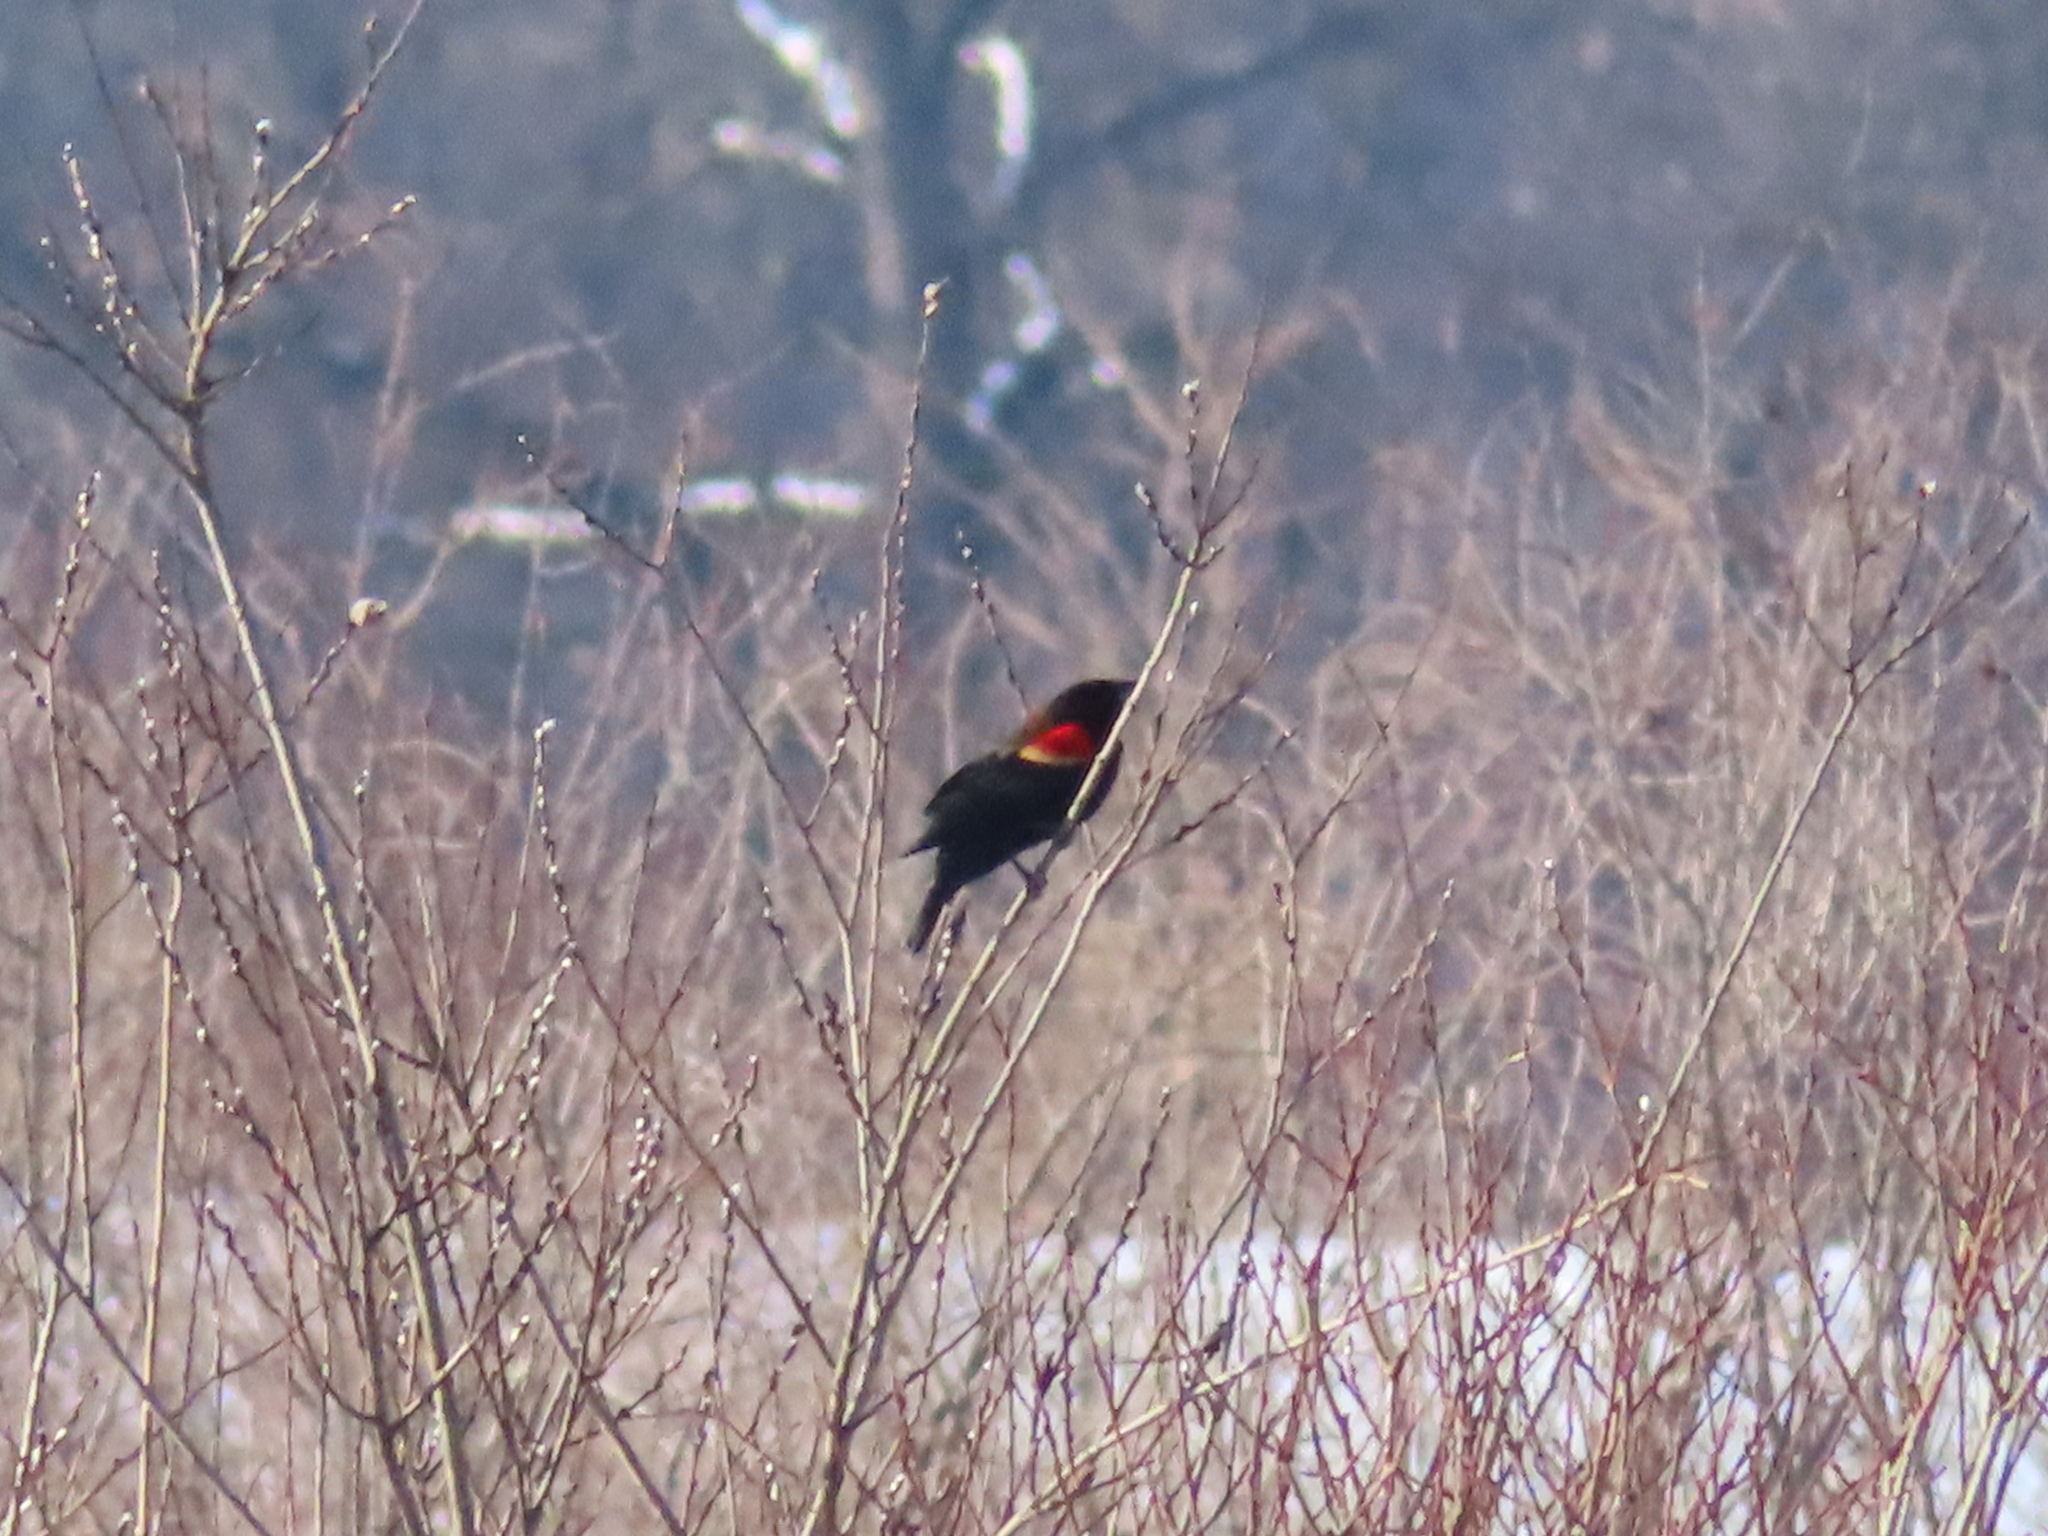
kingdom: Animalia
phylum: Chordata
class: Aves
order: Passeriformes
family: Icteridae
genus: Agelaius
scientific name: Agelaius phoeniceus
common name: Red-winged blackbird
